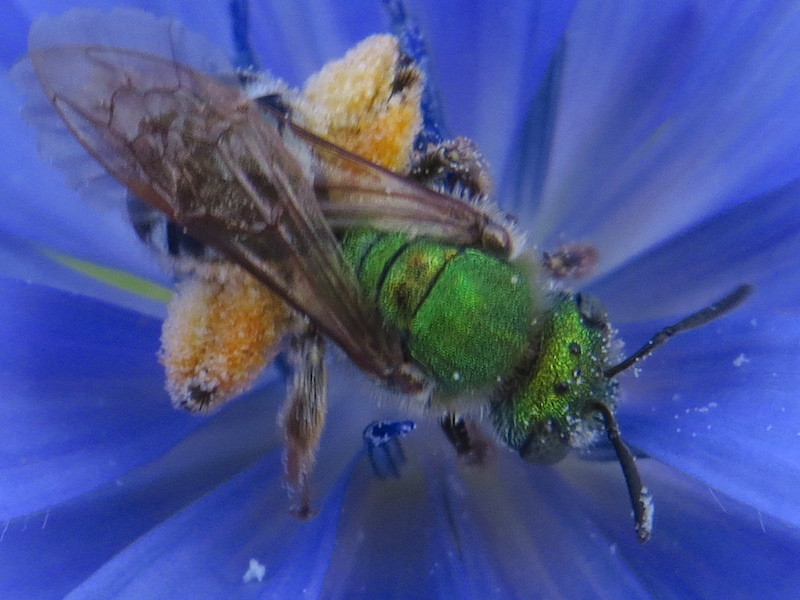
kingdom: Animalia
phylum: Arthropoda
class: Insecta
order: Hymenoptera
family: Halictidae
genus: Agapostemon
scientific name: Agapostemon virescens
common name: Bicolored striped sweat bee
